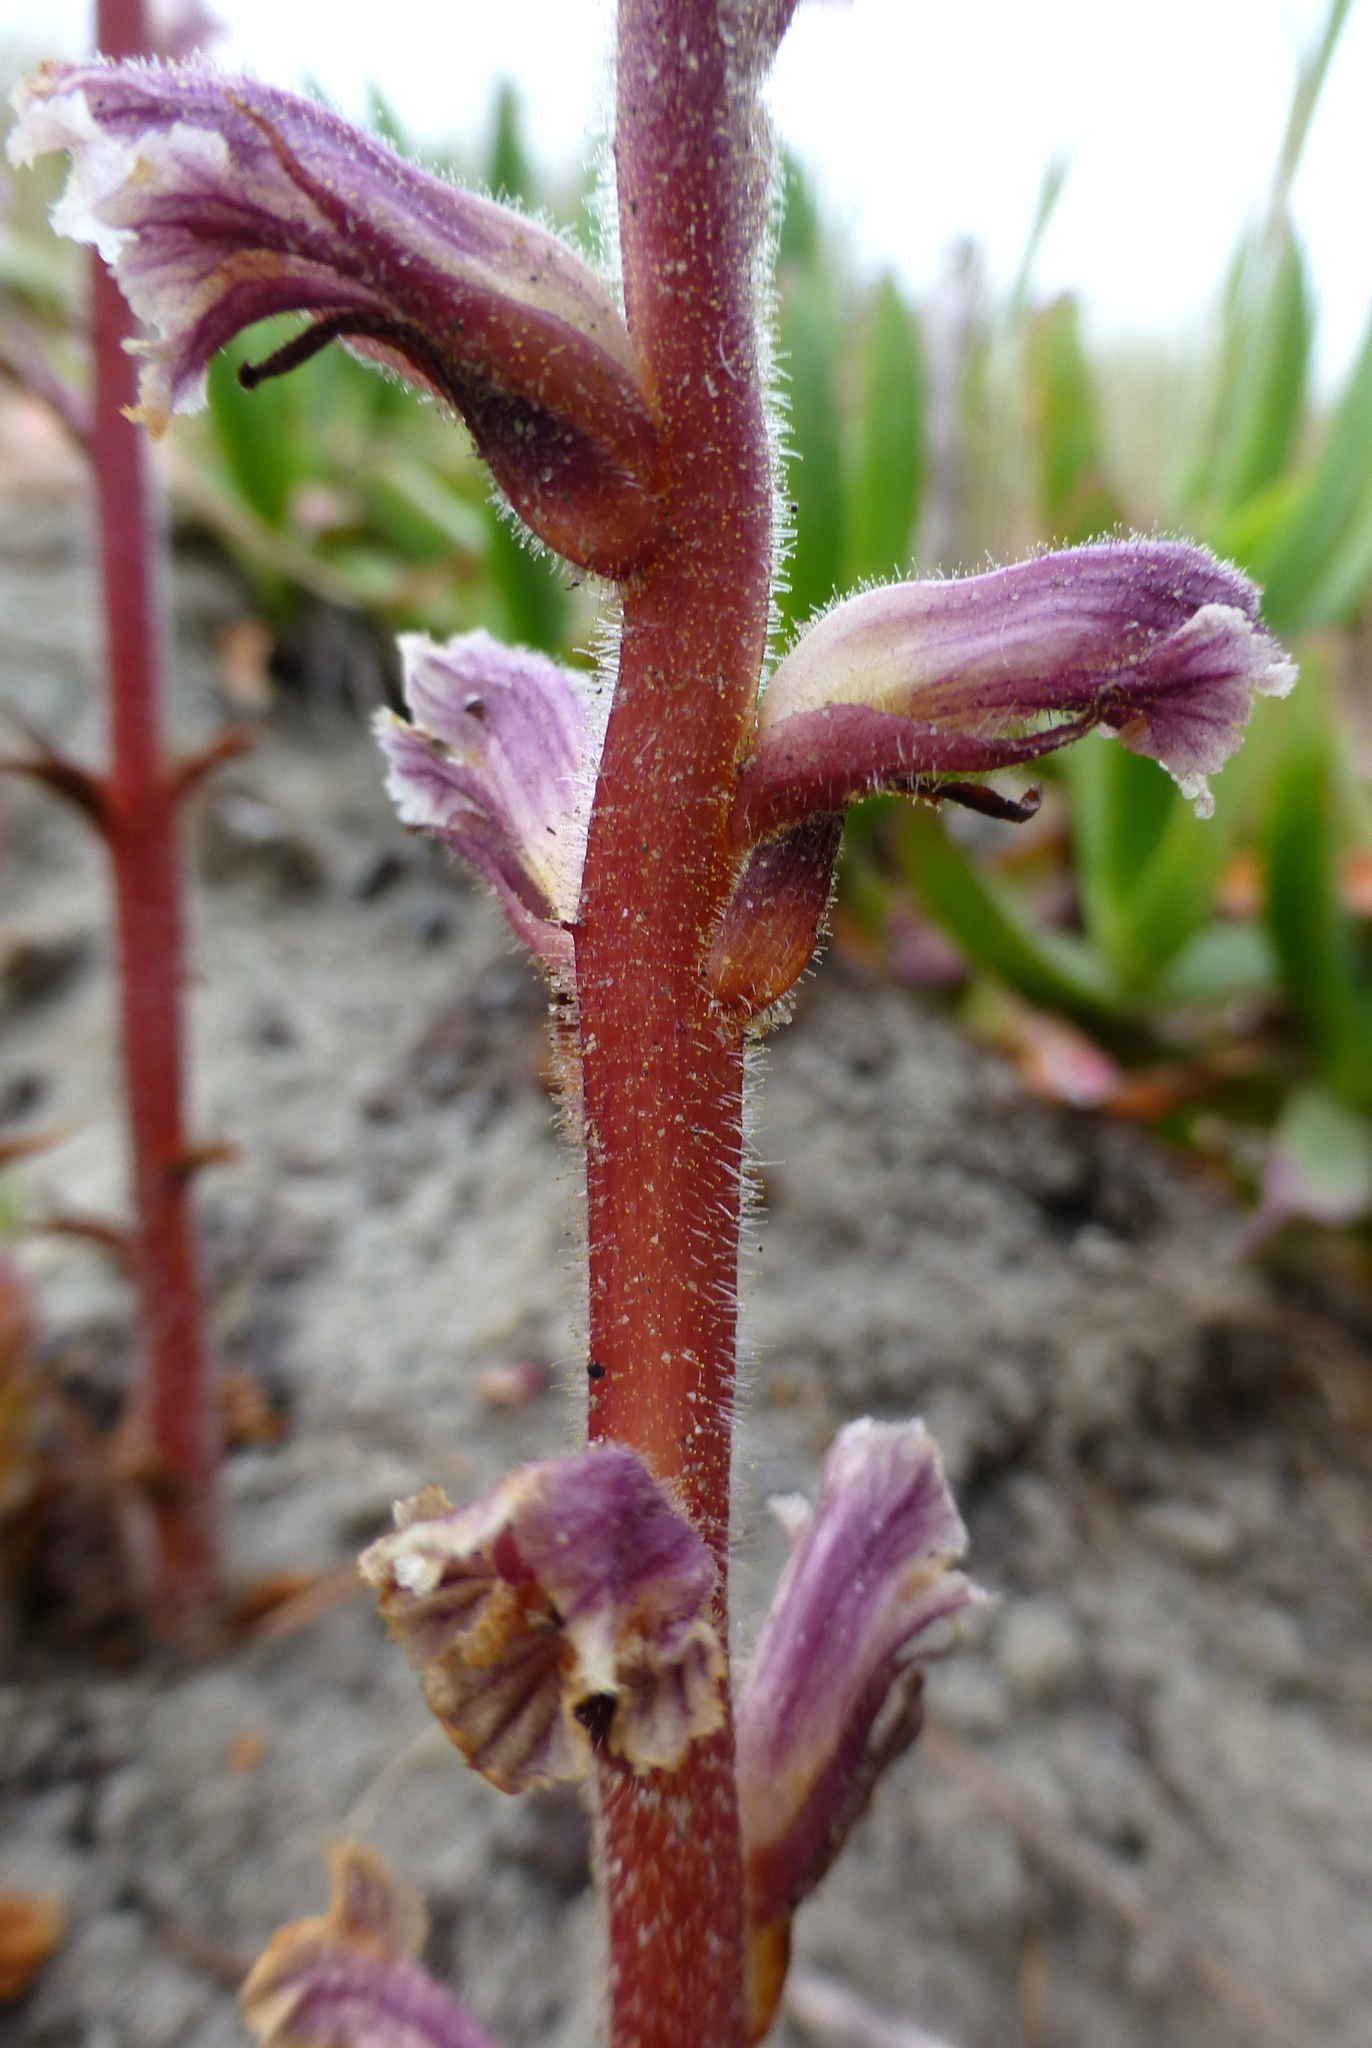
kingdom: Plantae
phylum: Tracheophyta
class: Magnoliopsida
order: Lamiales
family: Orobanchaceae
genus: Orobanche
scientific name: Orobanche minor
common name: Common broomrape
